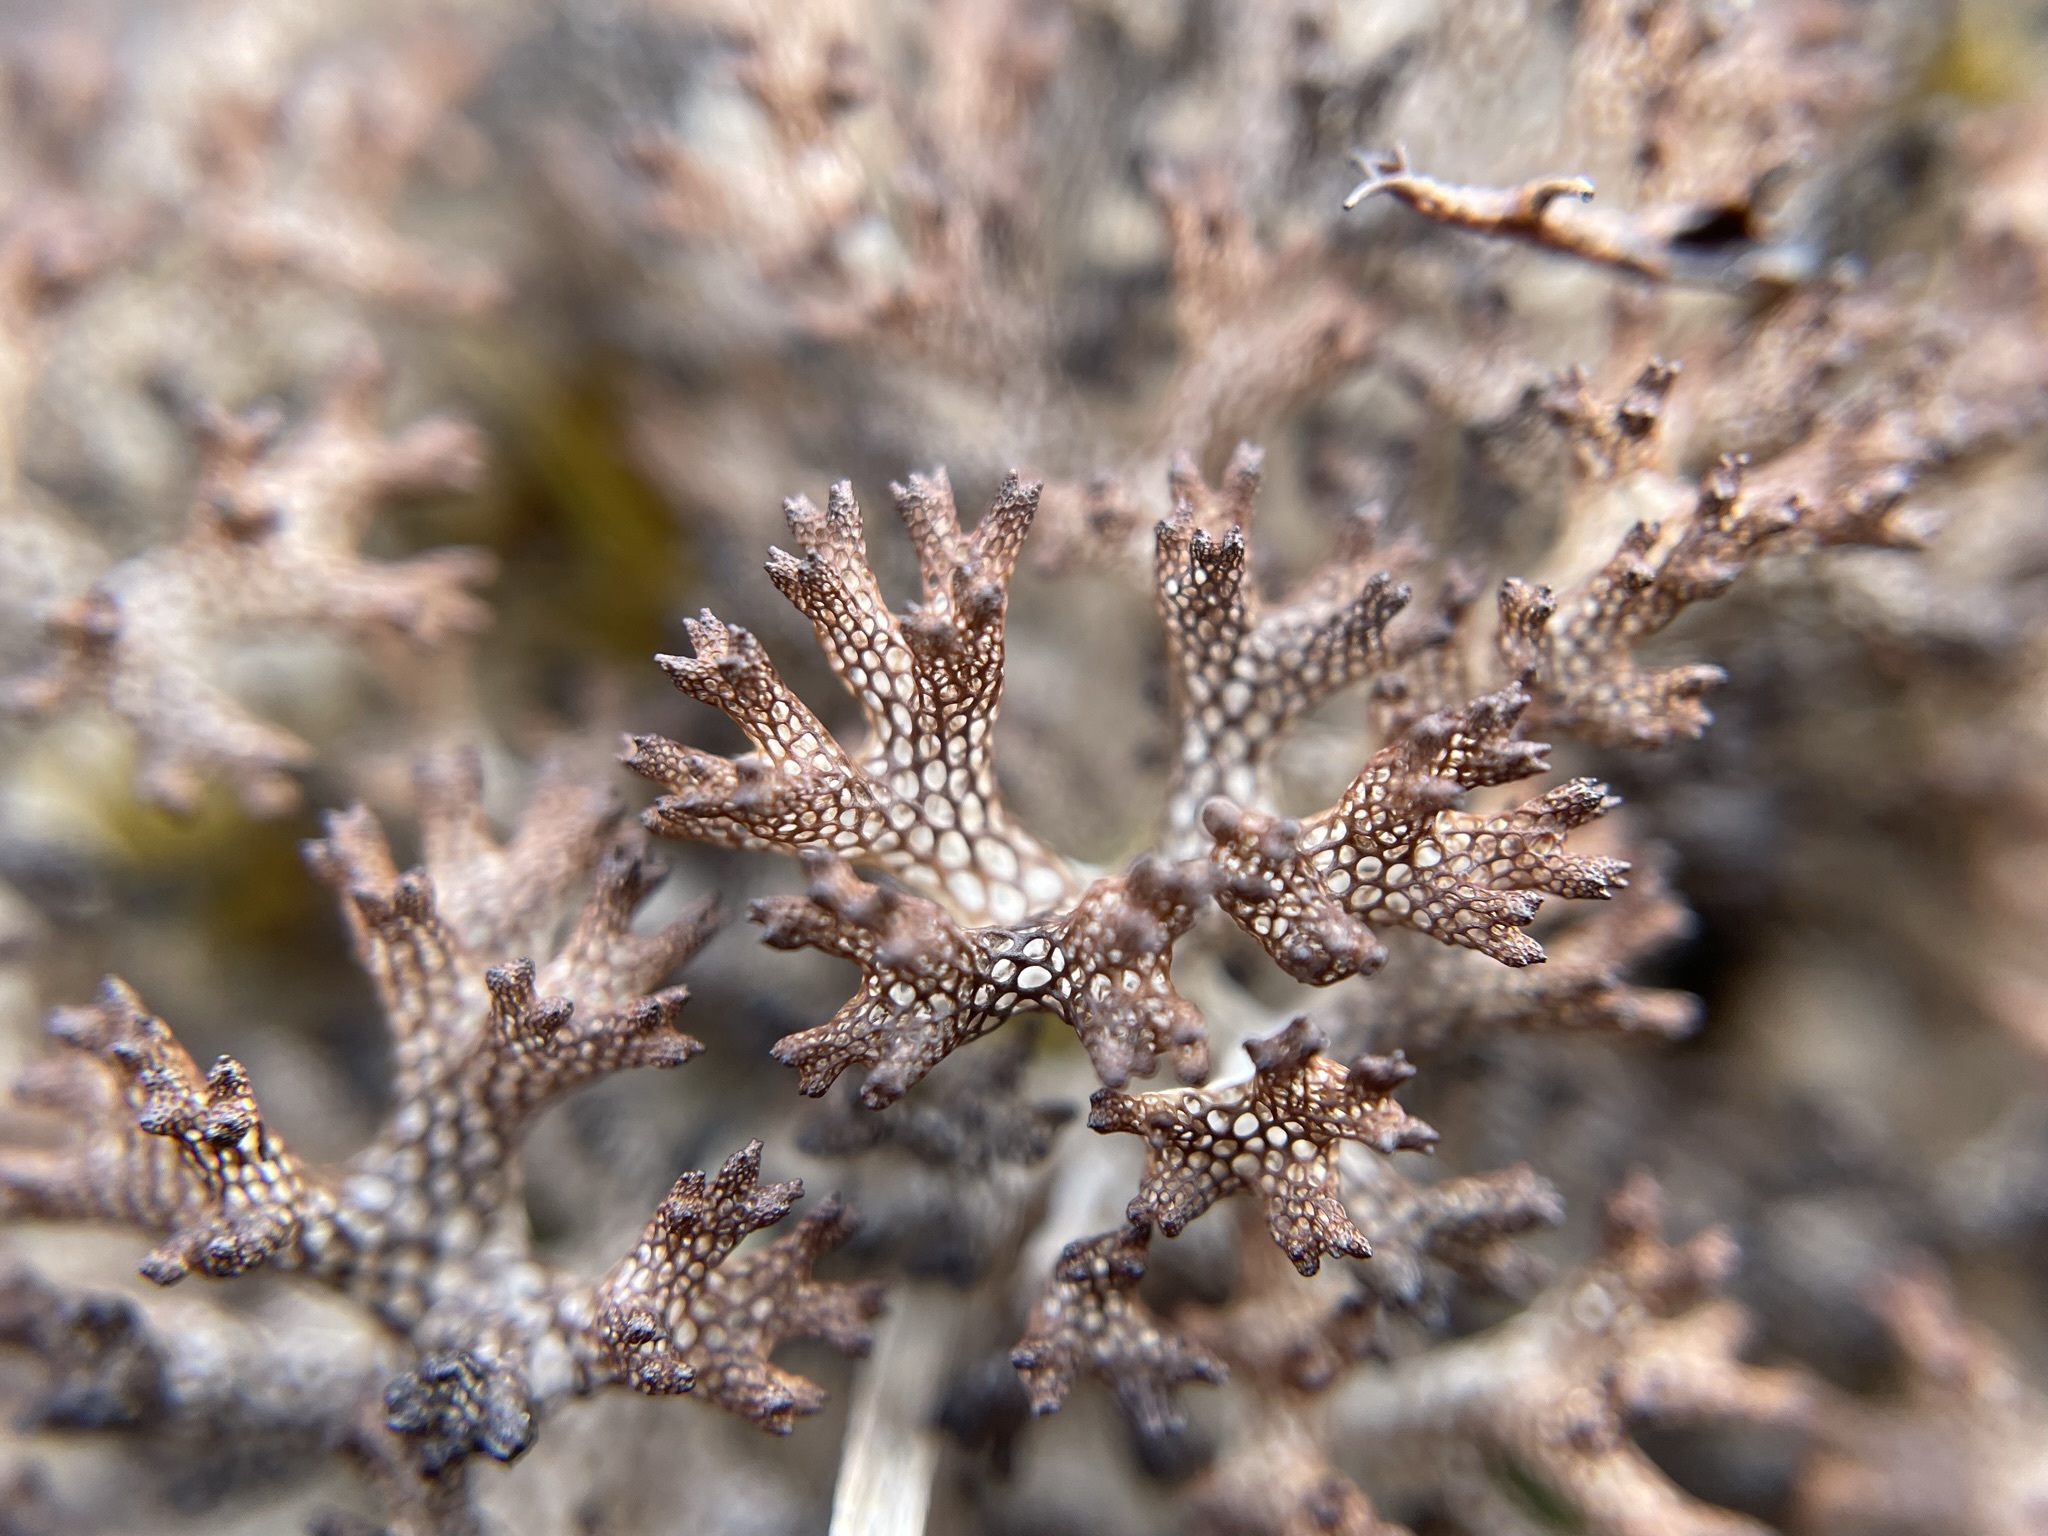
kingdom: Fungi
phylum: Ascomycota
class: Lecanoromycetes
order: Lecanorales
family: Cladoniaceae
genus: Pulchrocladia
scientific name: Pulchrocladia retipora
